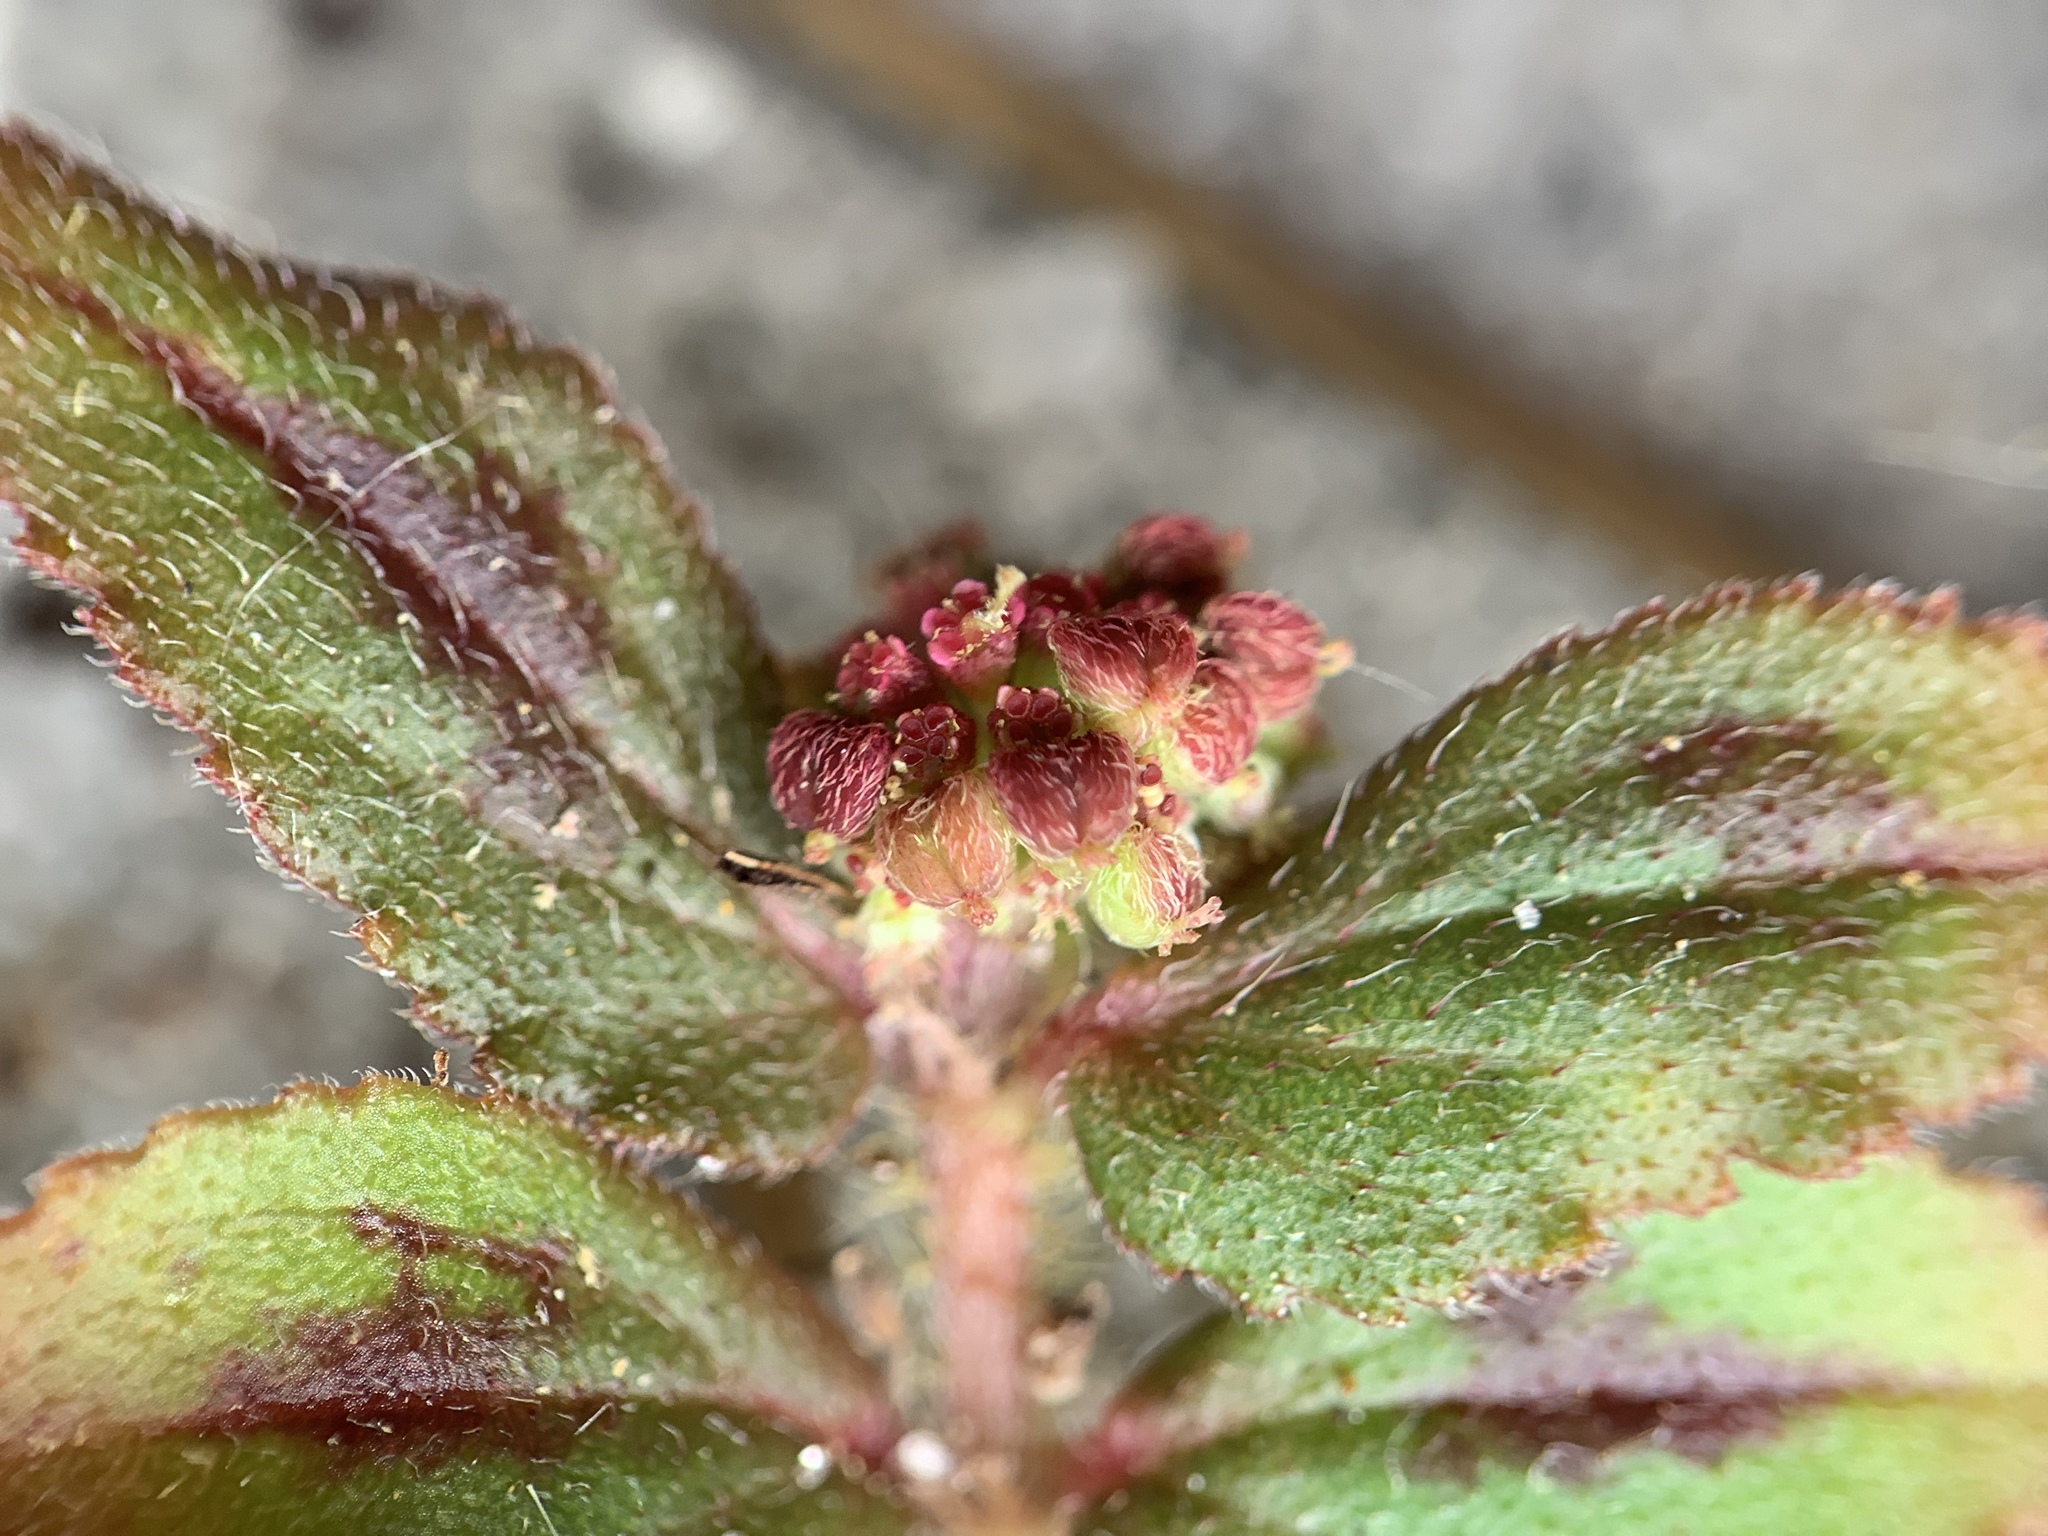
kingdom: Plantae
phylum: Tracheophyta
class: Magnoliopsida
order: Malpighiales
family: Euphorbiaceae
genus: Euphorbia
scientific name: Euphorbia hirta
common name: Pillpod sandmat
